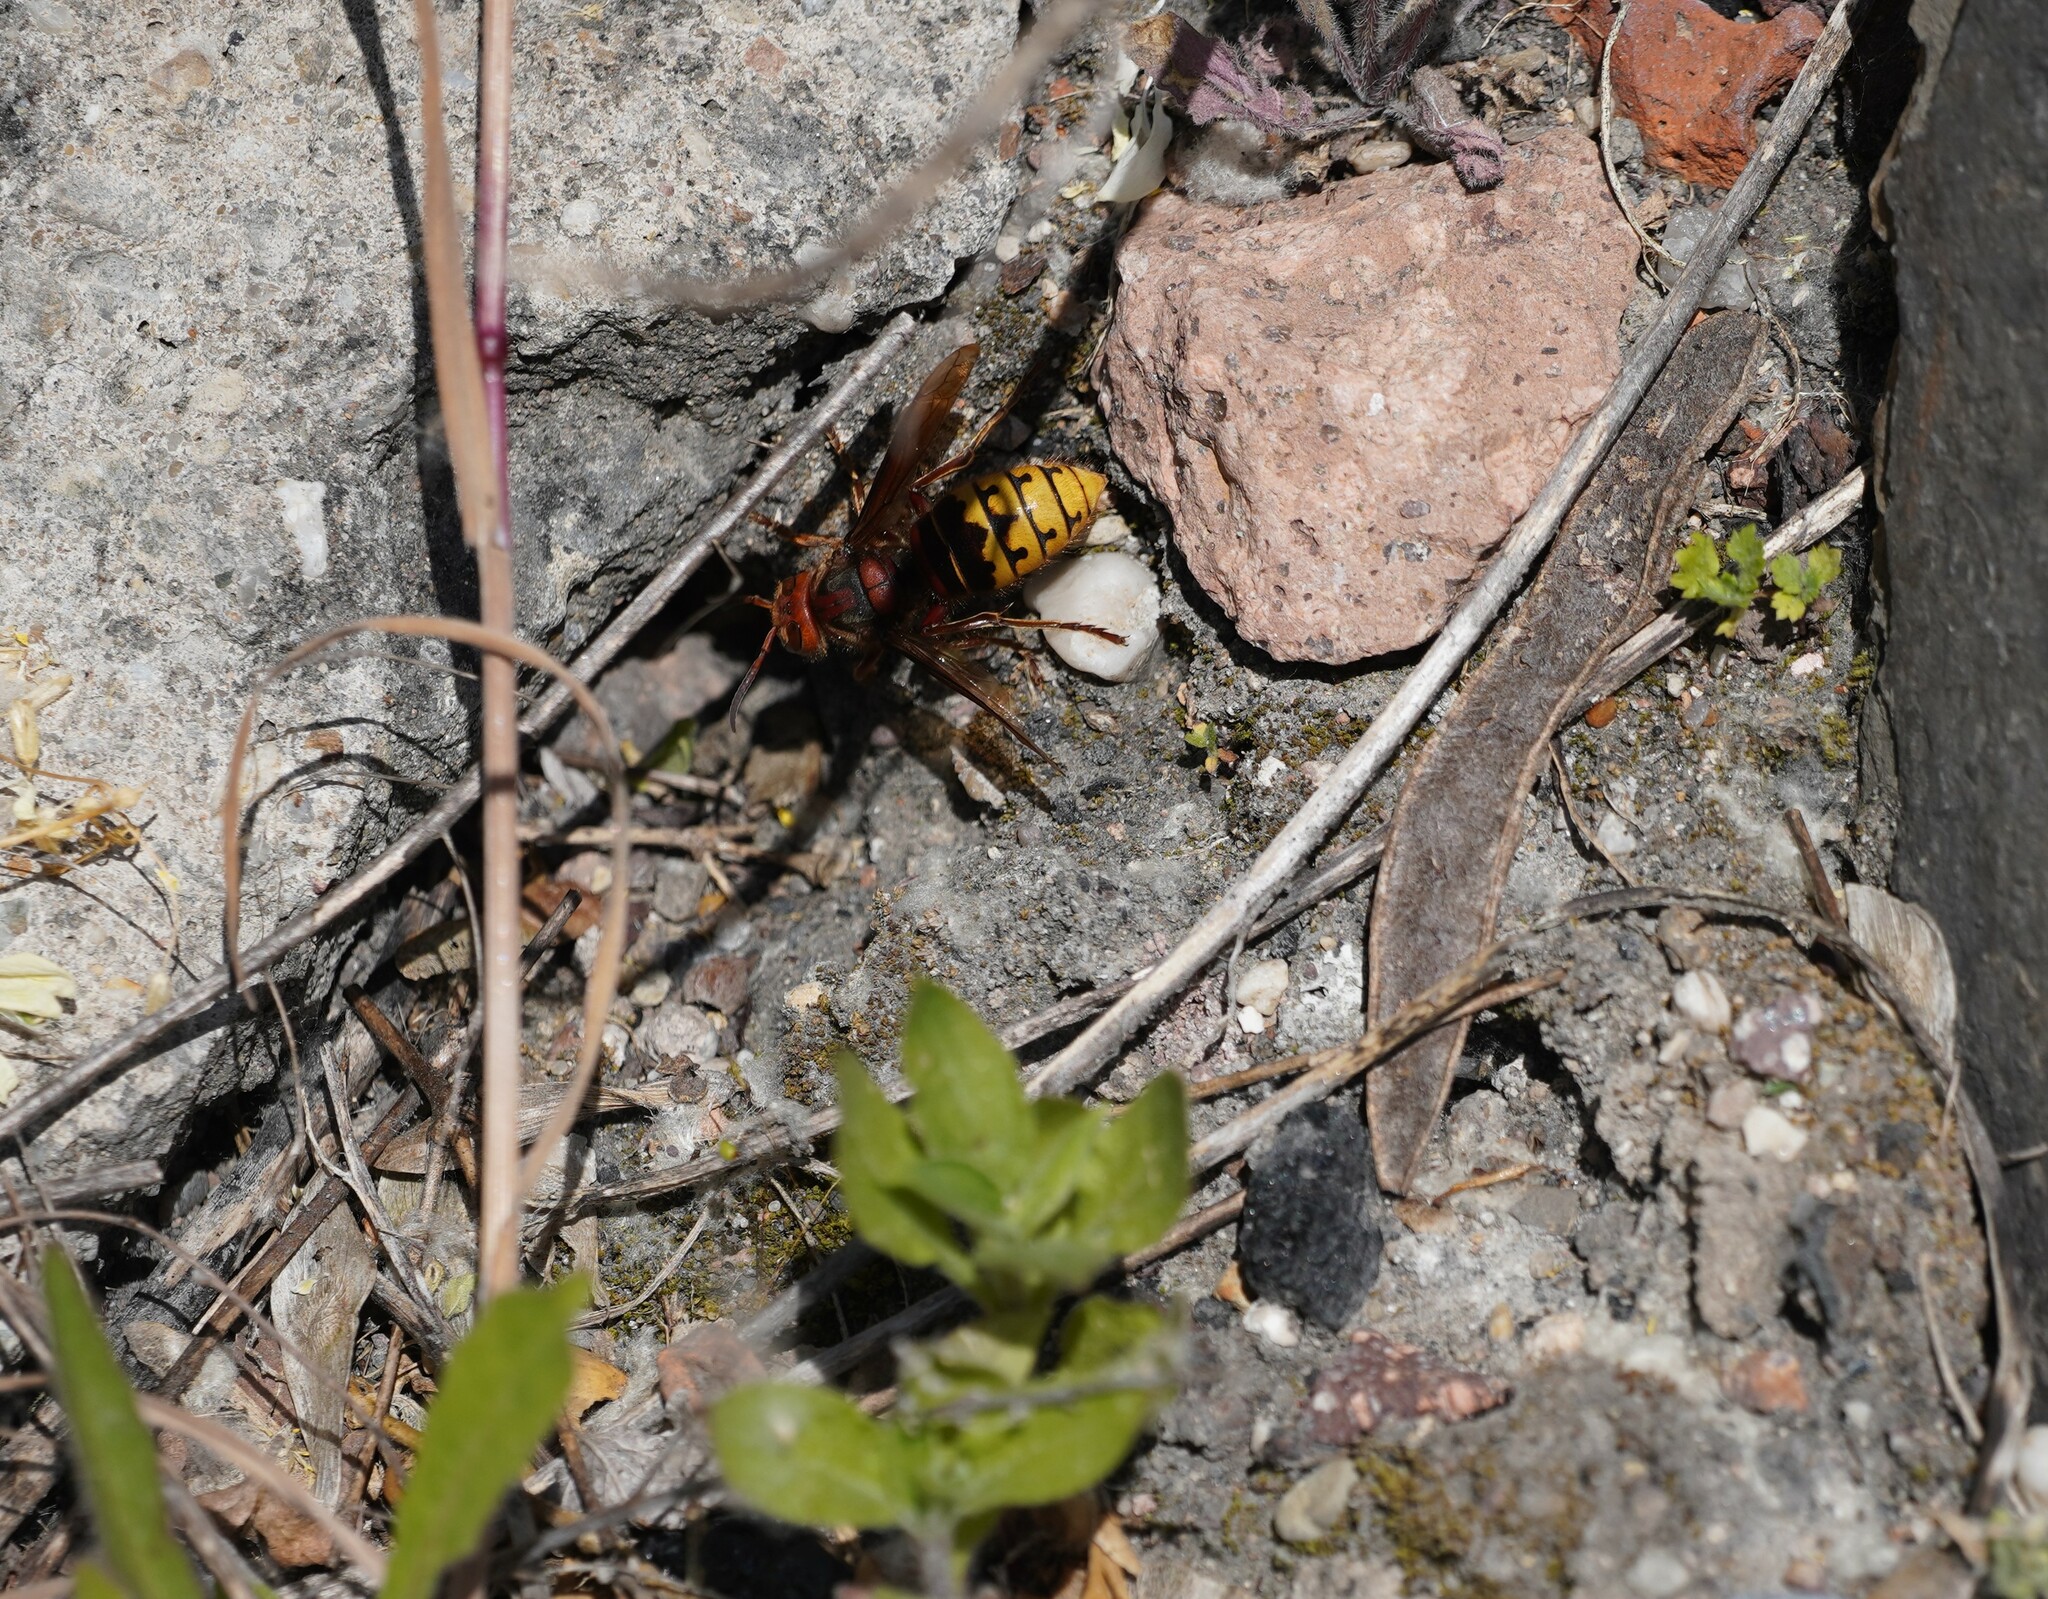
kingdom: Animalia
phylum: Arthropoda
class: Insecta
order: Hymenoptera
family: Vespidae
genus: Vespa
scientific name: Vespa crabro
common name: Hornet
